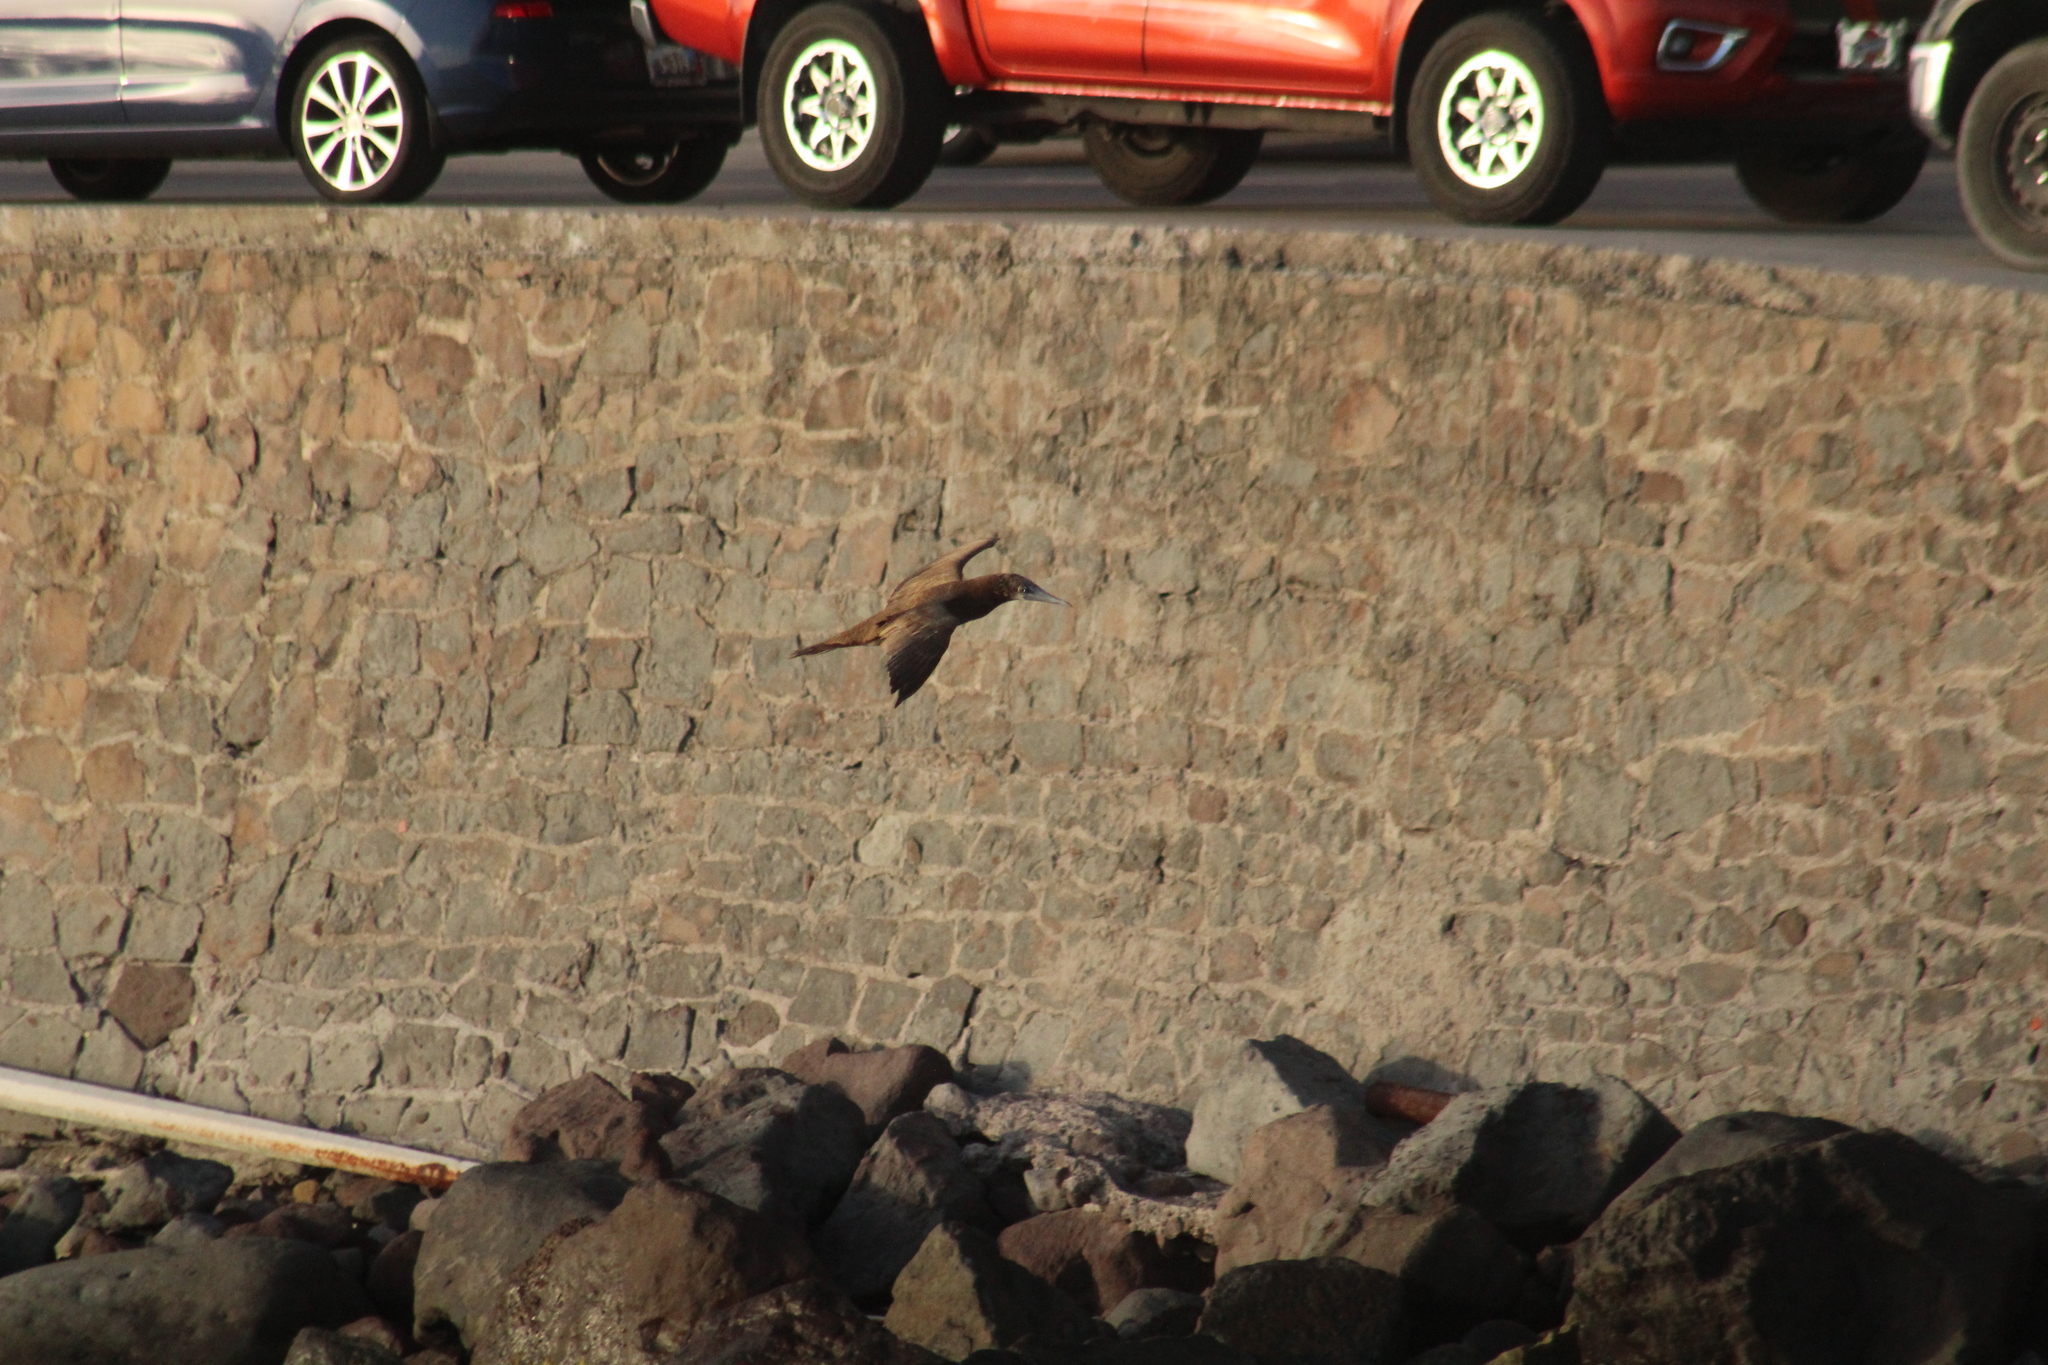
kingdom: Animalia
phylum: Chordata
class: Aves
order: Suliformes
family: Sulidae
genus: Sula
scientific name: Sula leucogaster
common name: Brown booby
